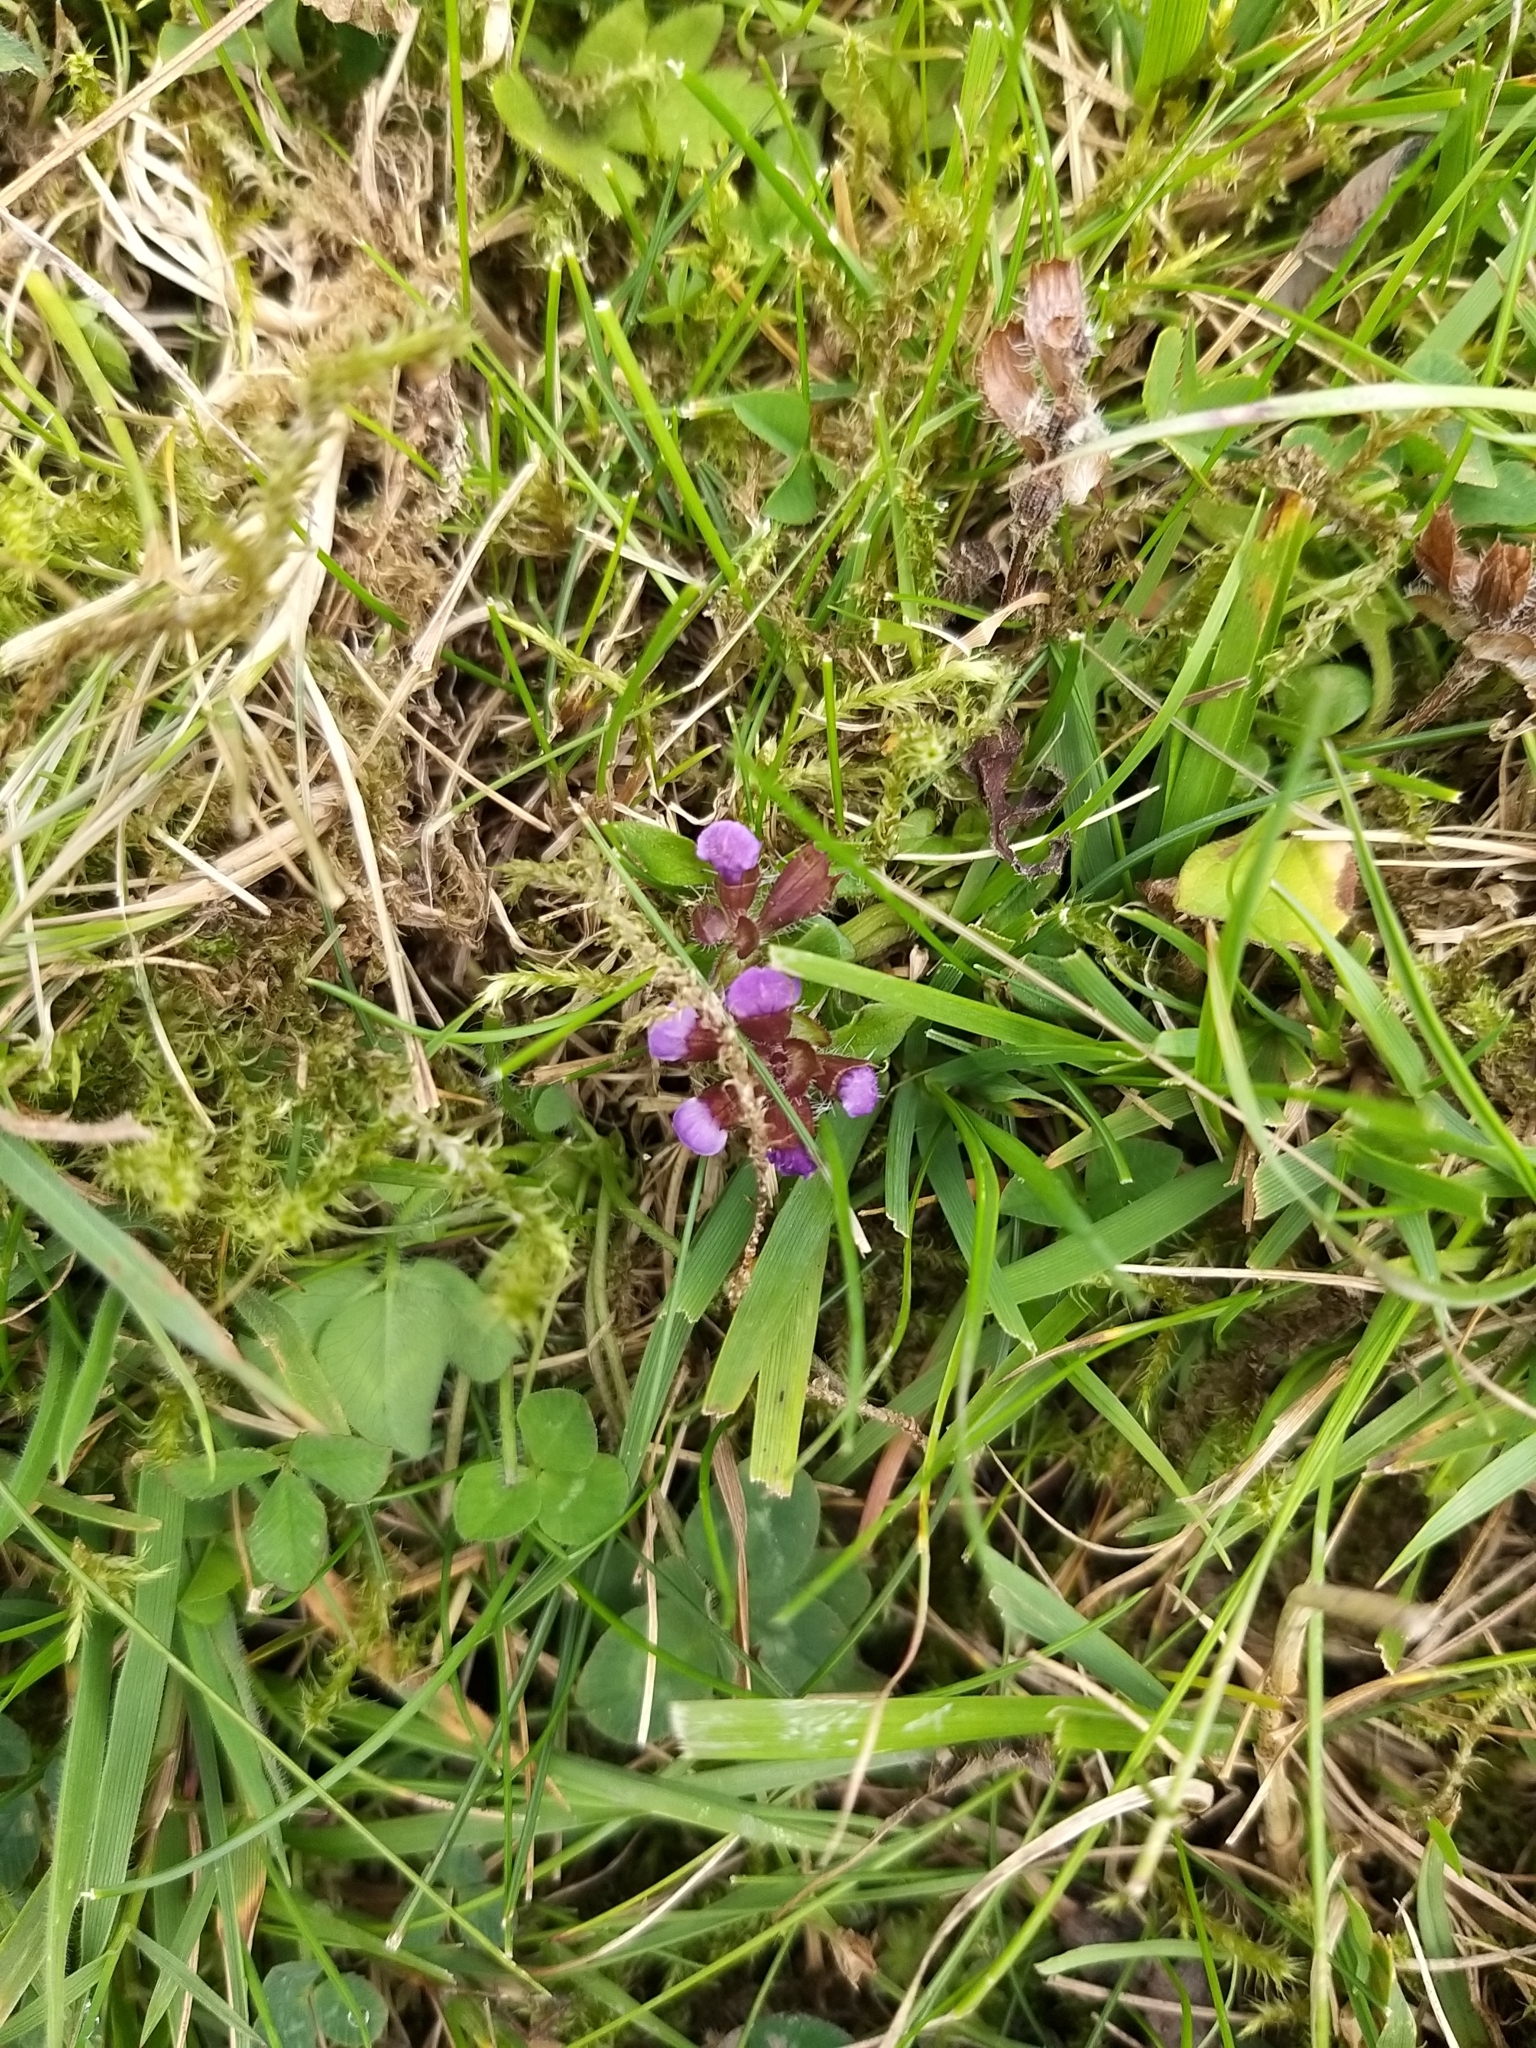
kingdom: Plantae
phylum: Tracheophyta
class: Magnoliopsida
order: Lamiales
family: Lamiaceae
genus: Prunella
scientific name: Prunella vulgaris
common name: Heal-all
